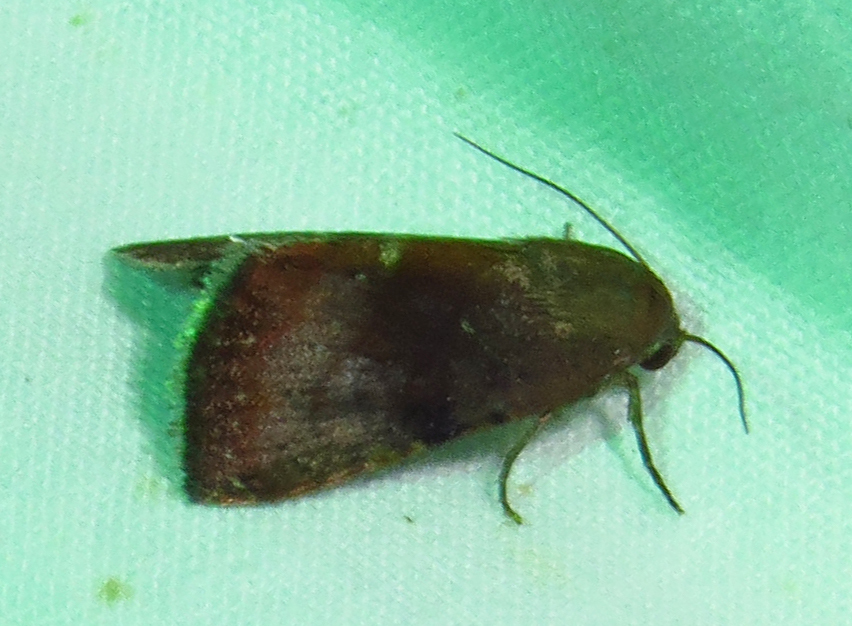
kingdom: Animalia
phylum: Arthropoda
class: Insecta
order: Lepidoptera
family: Noctuidae
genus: Galgula
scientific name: Galgula partita
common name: Wedgeling
